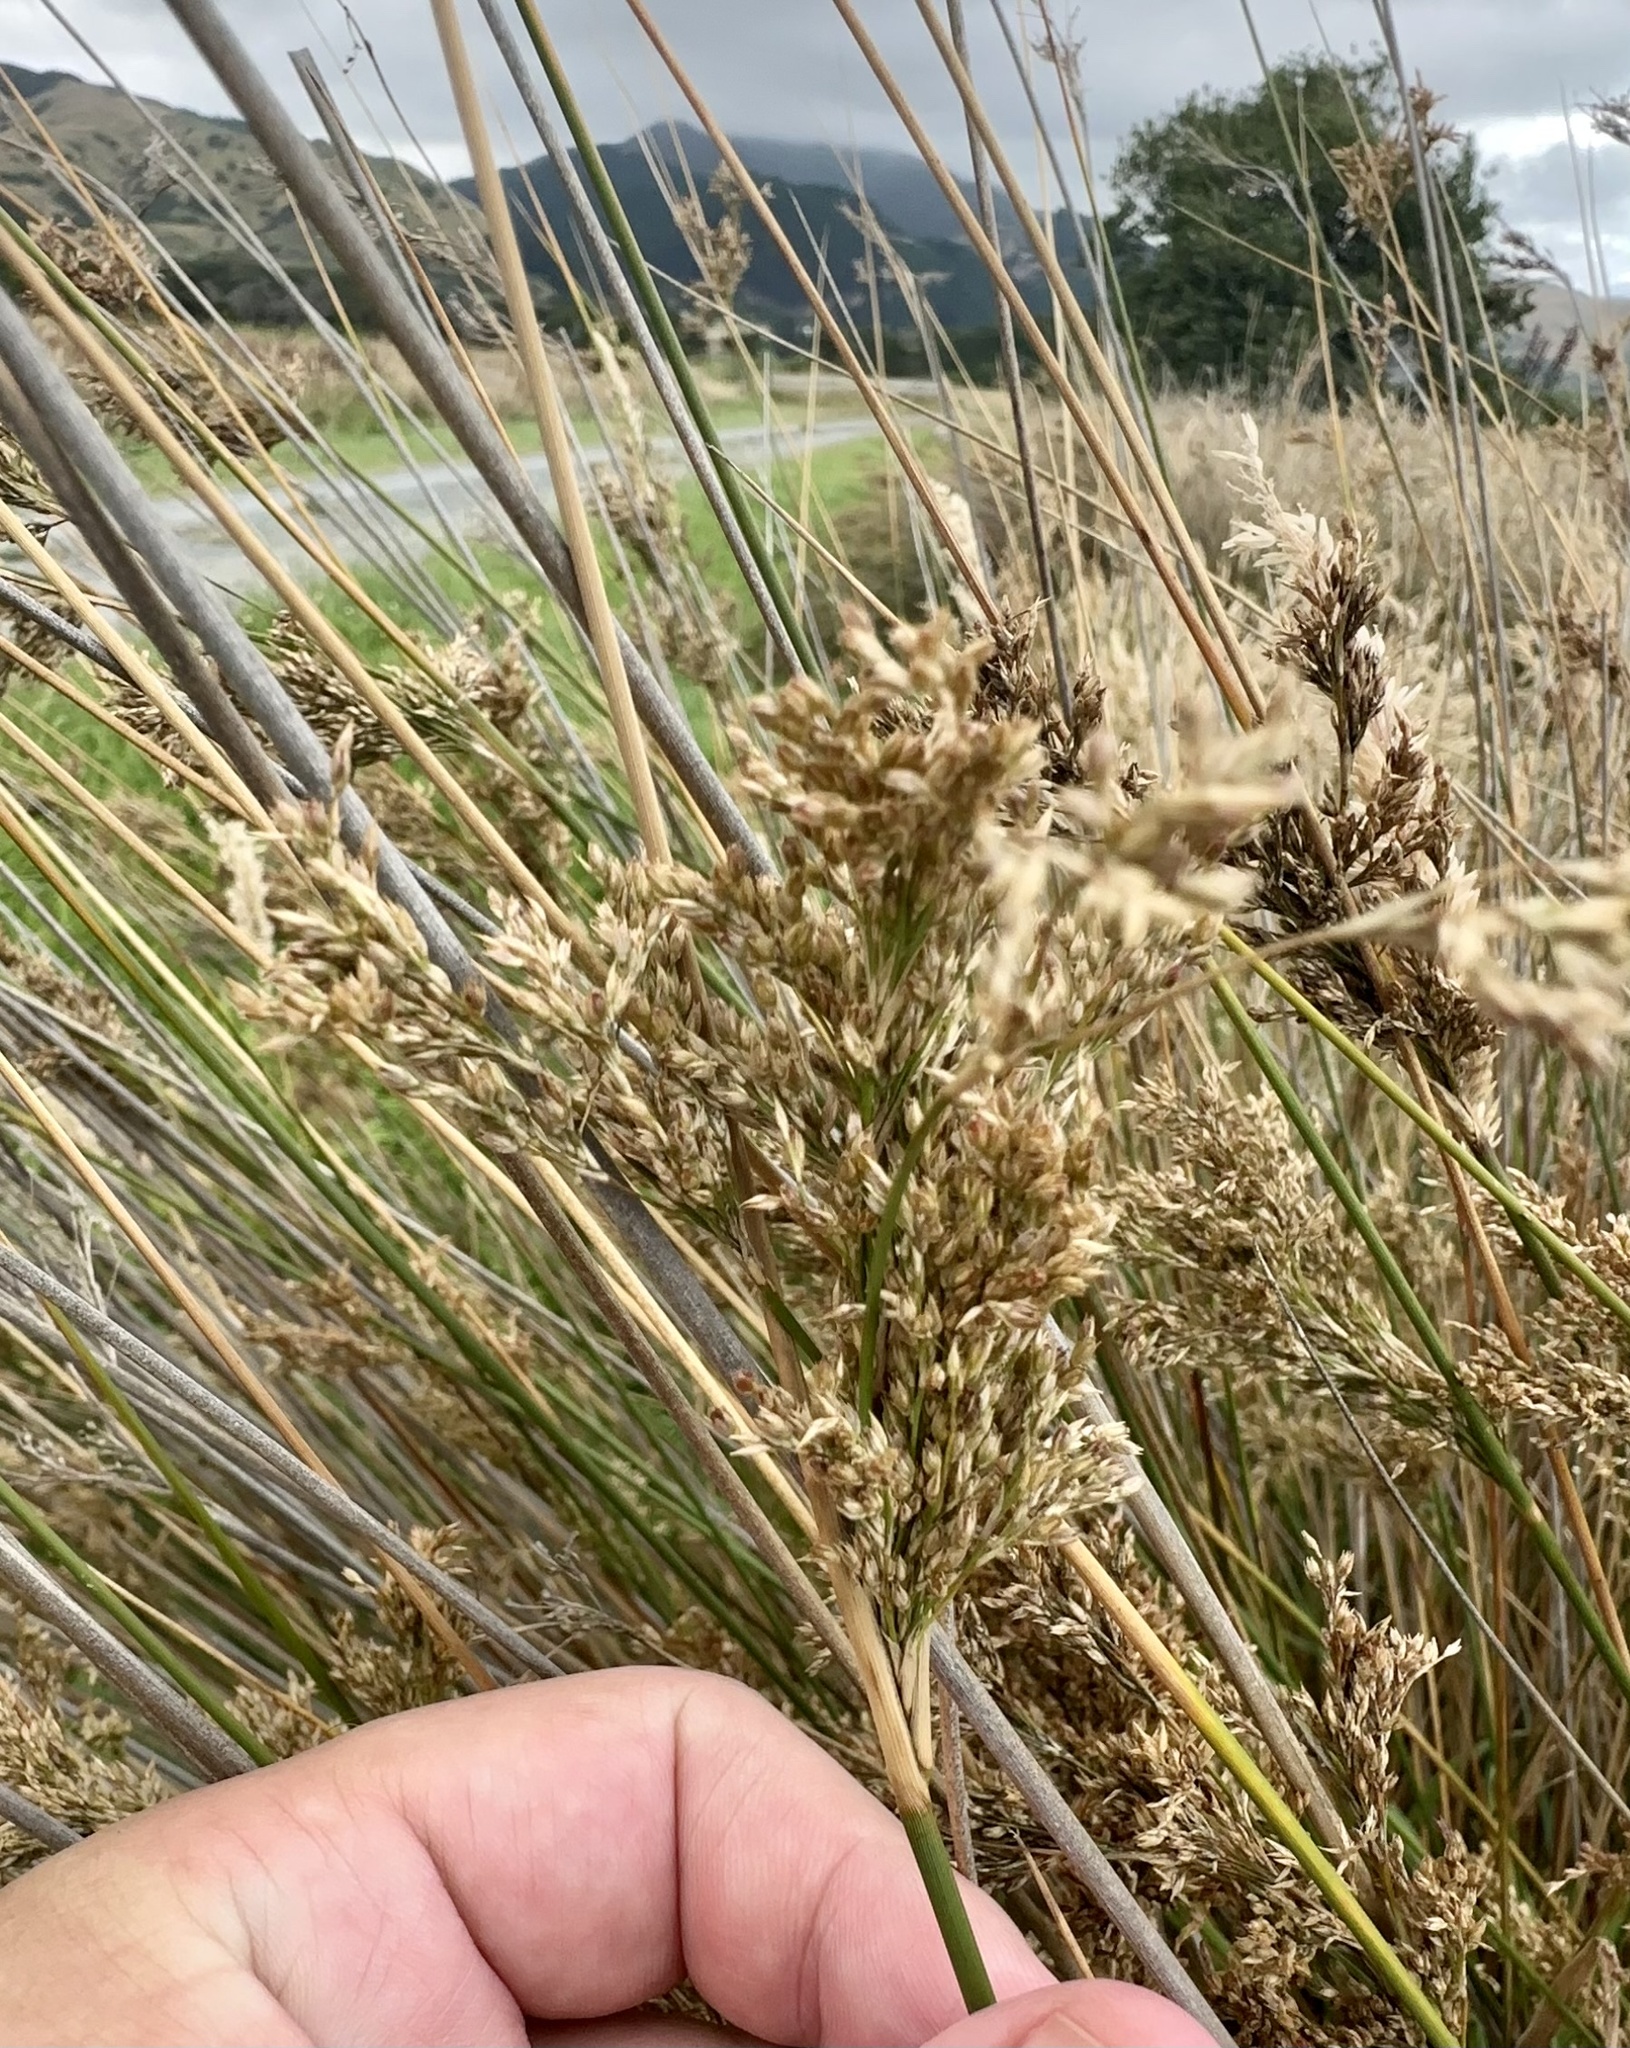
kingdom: Plantae
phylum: Tracheophyta
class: Liliopsida
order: Poales
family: Juncaceae
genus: Juncus
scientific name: Juncus pallidus
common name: Great soft-rush
